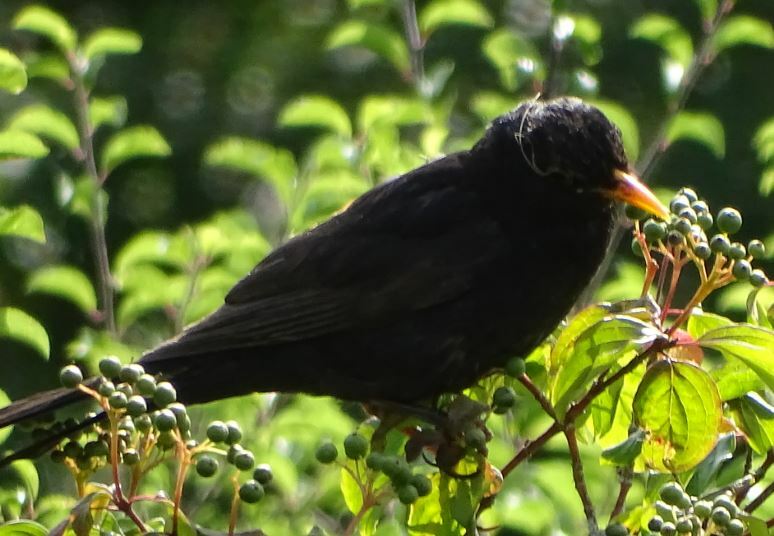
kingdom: Animalia
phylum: Chordata
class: Aves
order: Passeriformes
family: Turdidae
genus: Turdus
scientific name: Turdus merula
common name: Common blackbird
